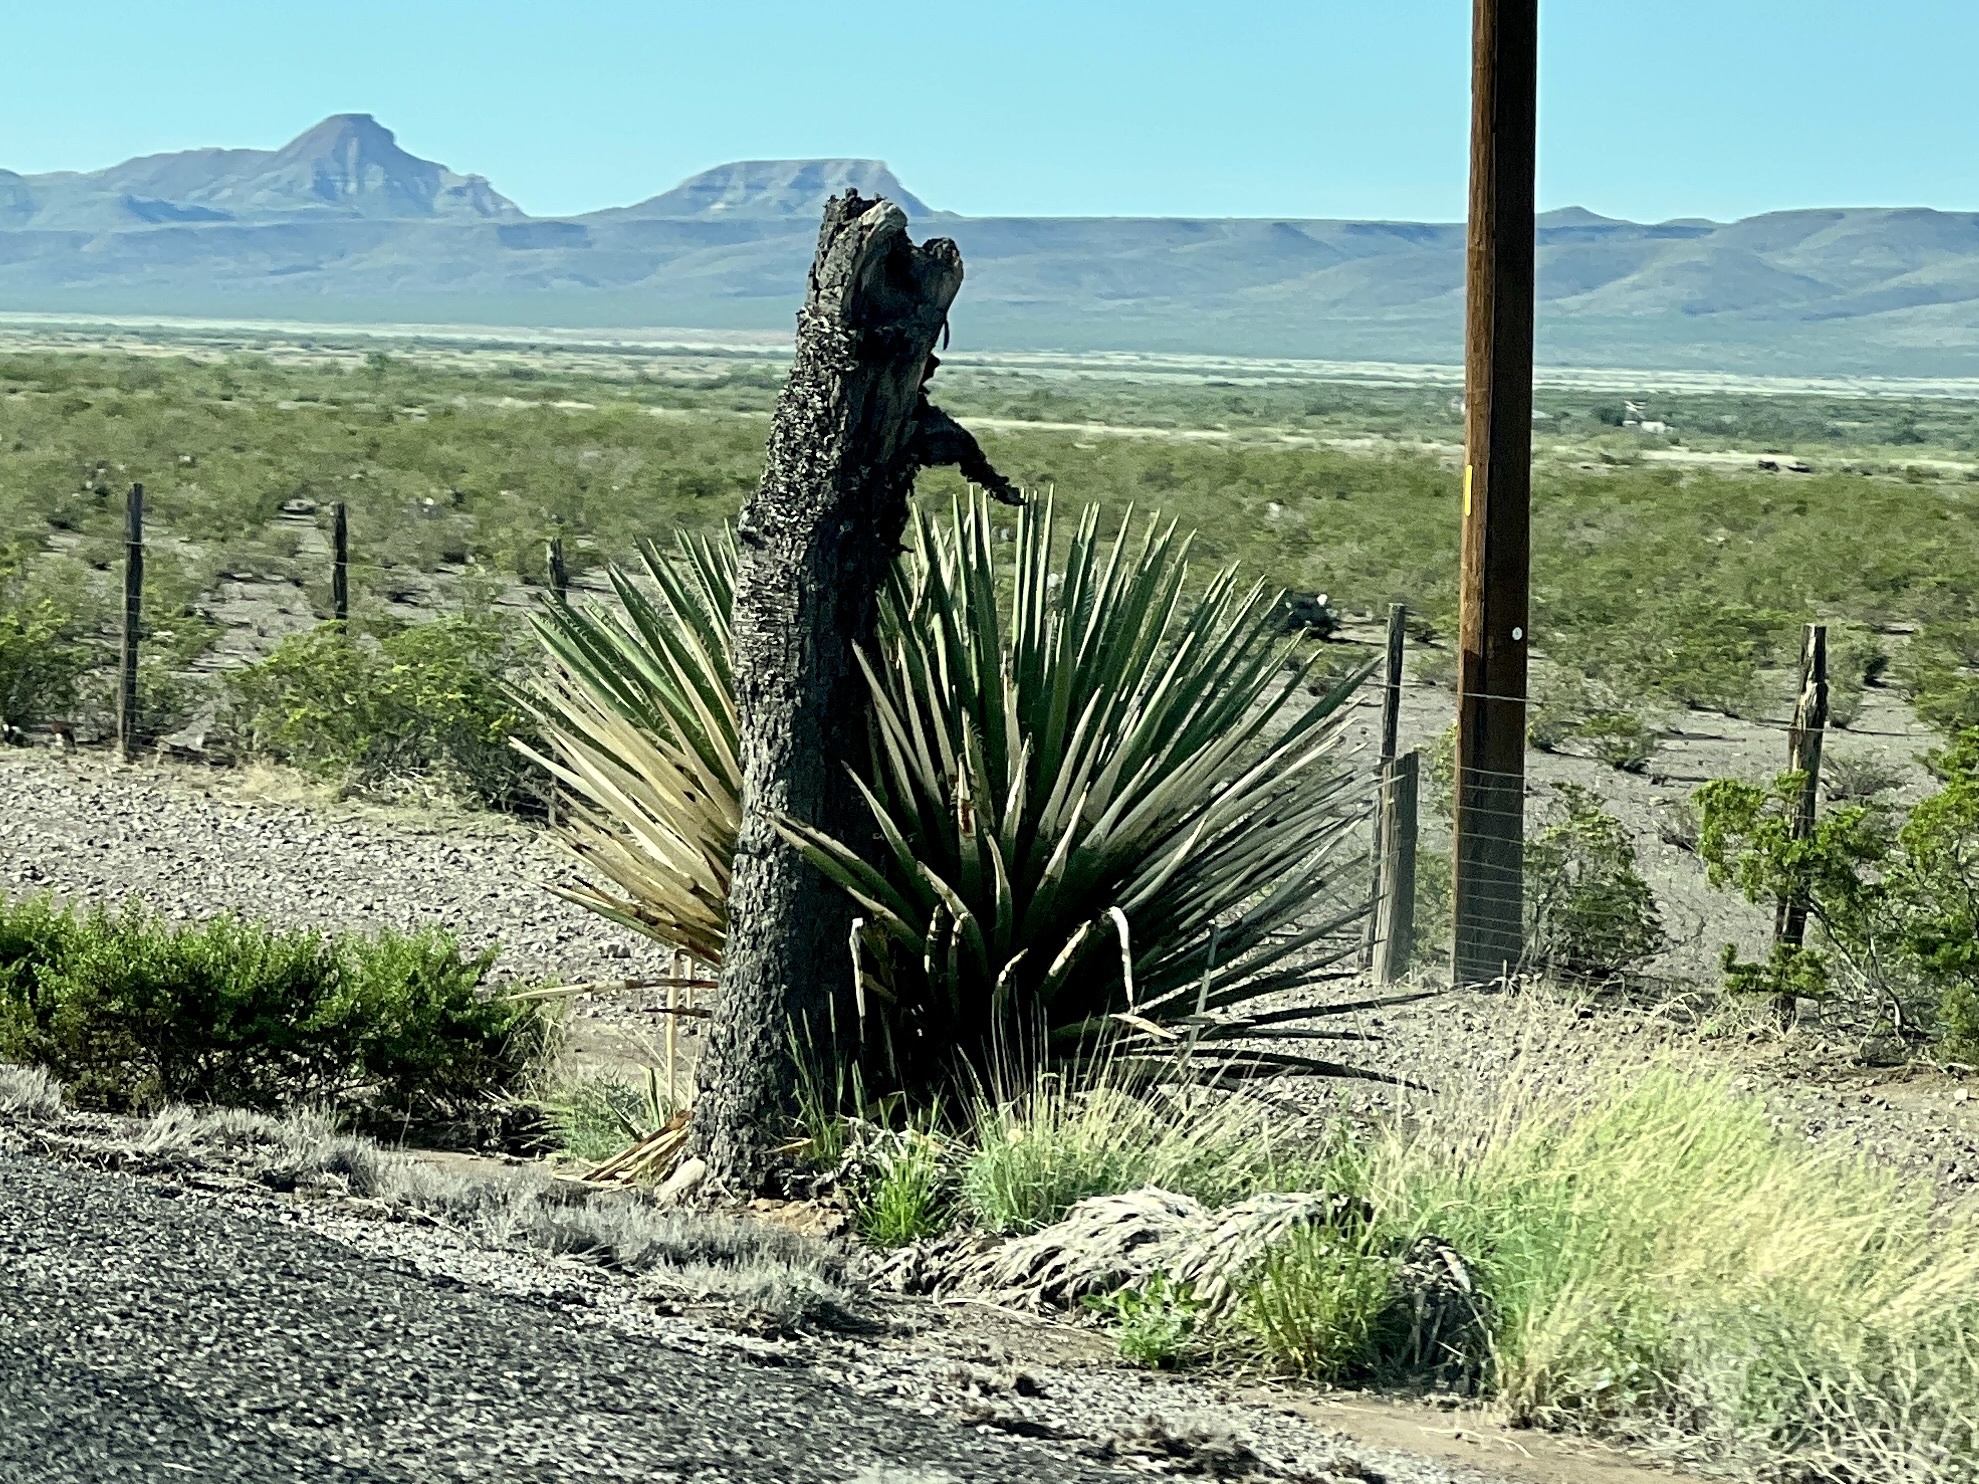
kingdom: Plantae
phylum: Tracheophyta
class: Liliopsida
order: Asparagales
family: Asparagaceae
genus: Yucca
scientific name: Yucca faxoniana
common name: Spanish dagger
